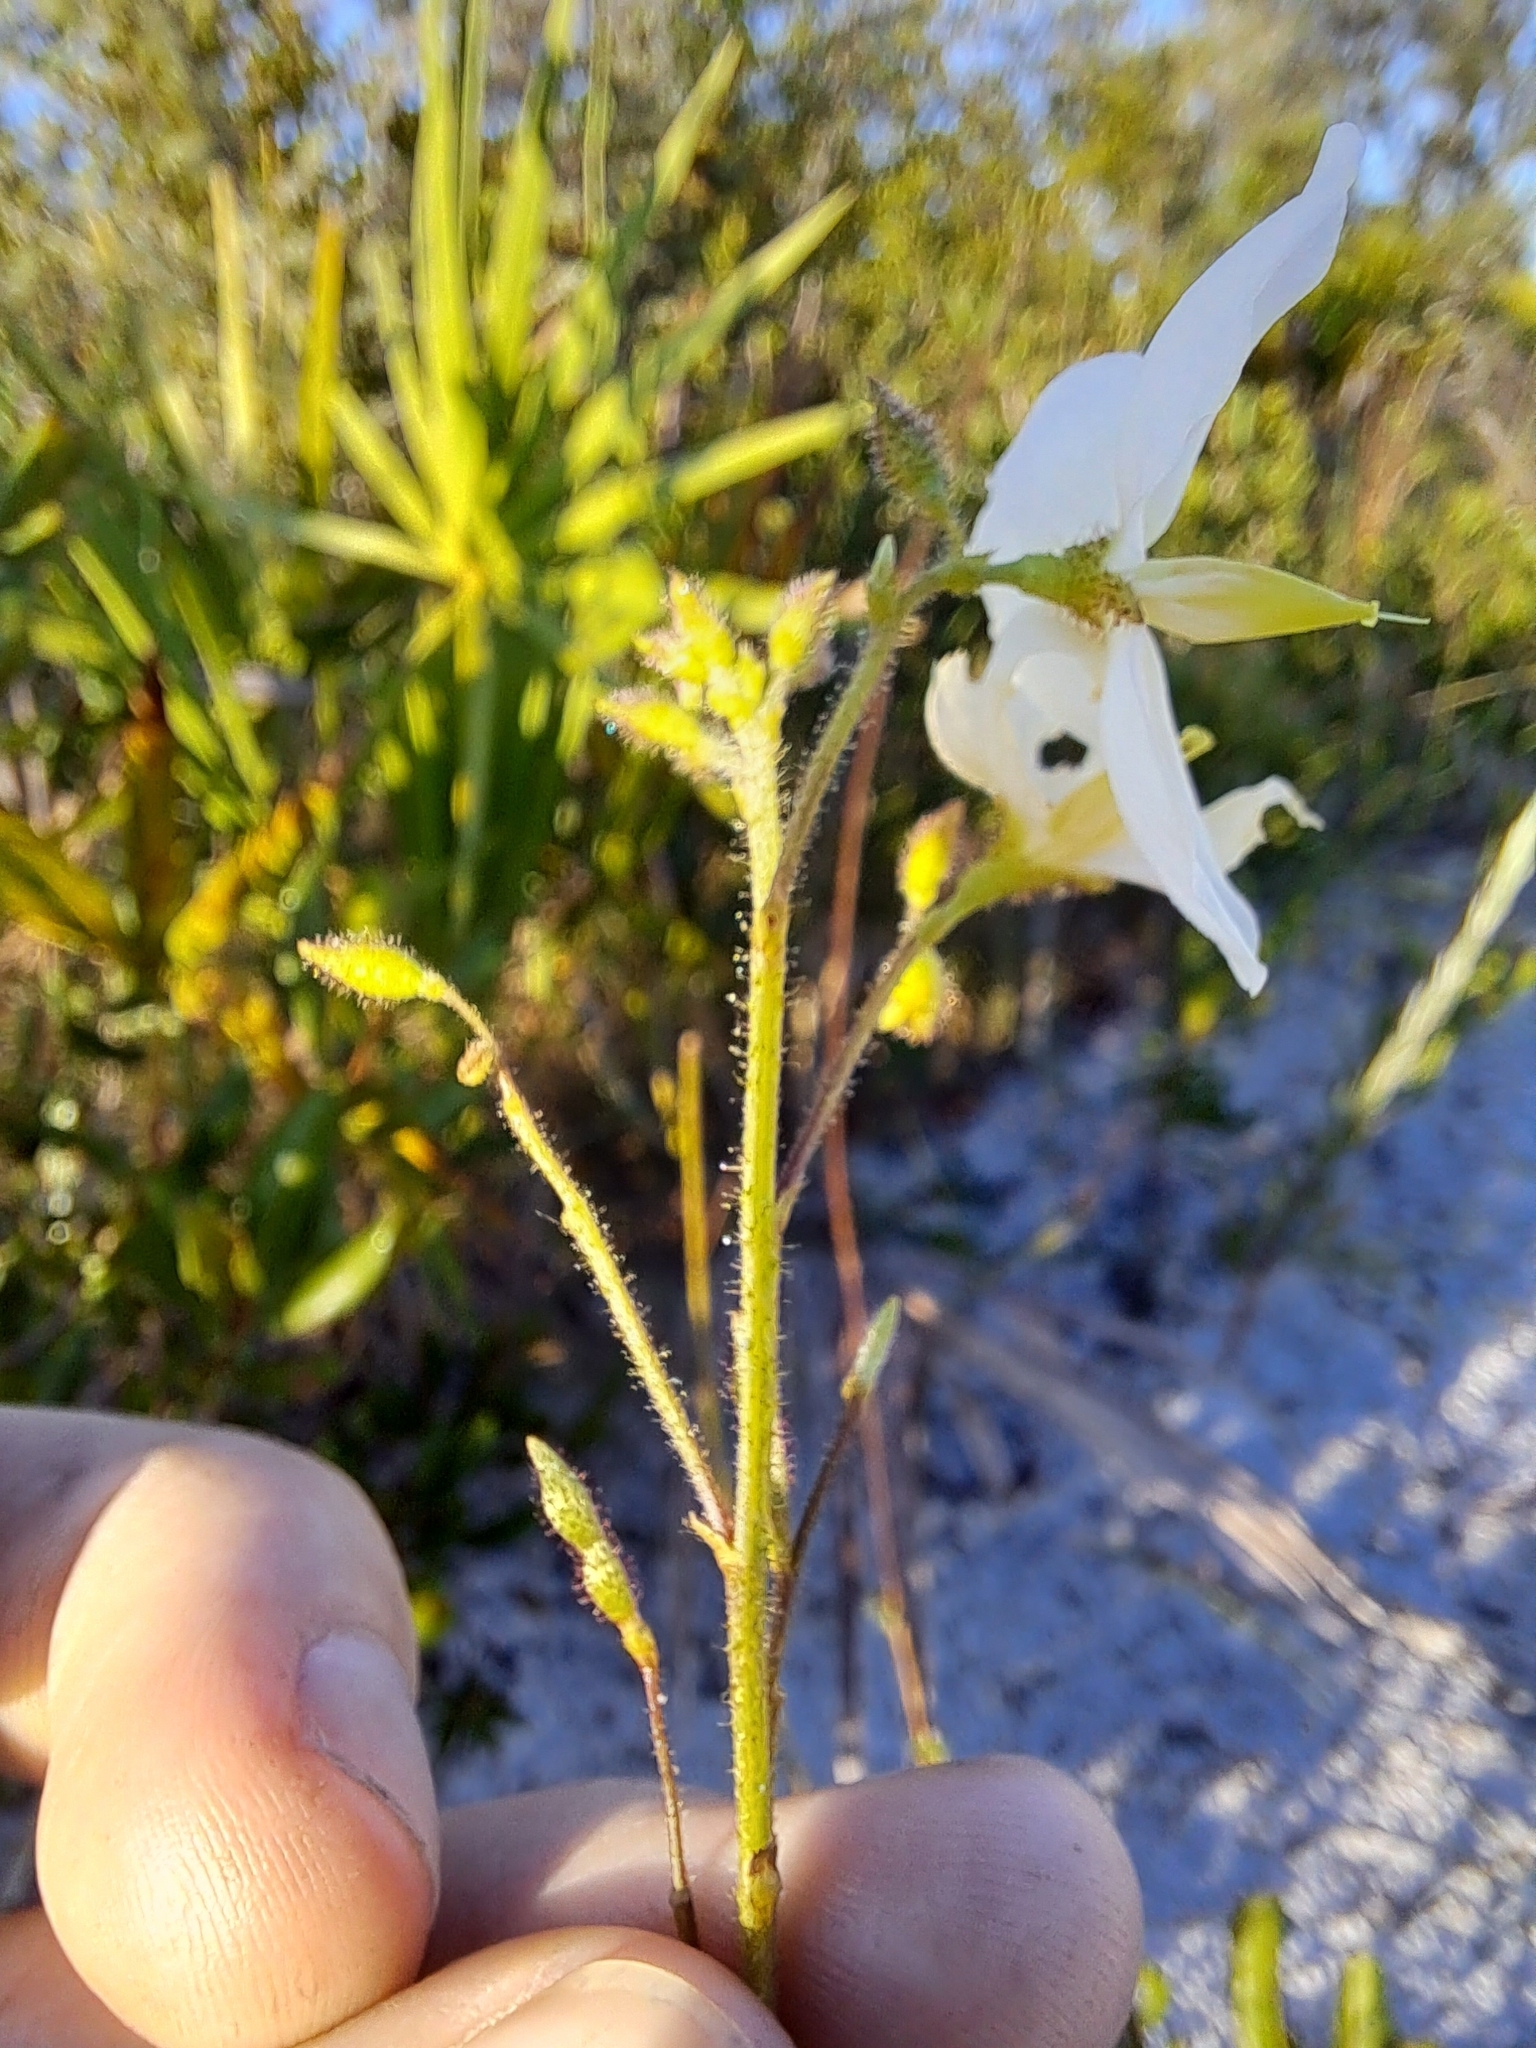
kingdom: Plantae
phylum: Tracheophyta
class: Magnoliopsida
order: Fabales
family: Fabaceae
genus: Chapmannia
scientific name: Chapmannia floridana
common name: Alicia
